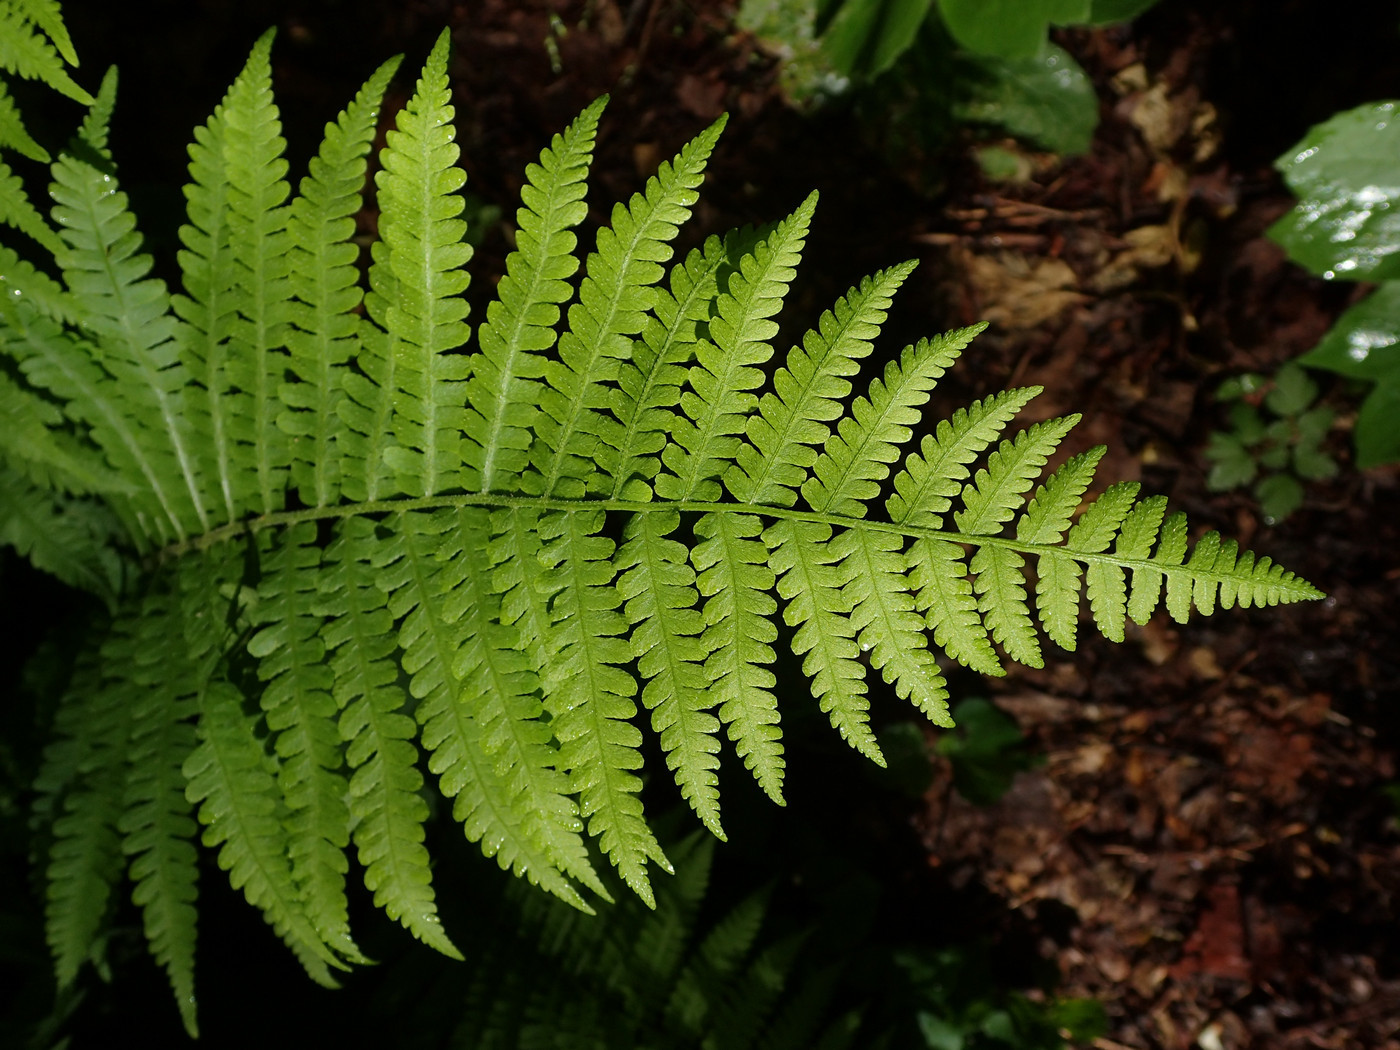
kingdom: Plantae
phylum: Tracheophyta
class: Polypodiopsida
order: Polypodiales
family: Athyriaceae
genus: Deparia
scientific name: Deparia acrostichoides
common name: Silver false spleenwort
